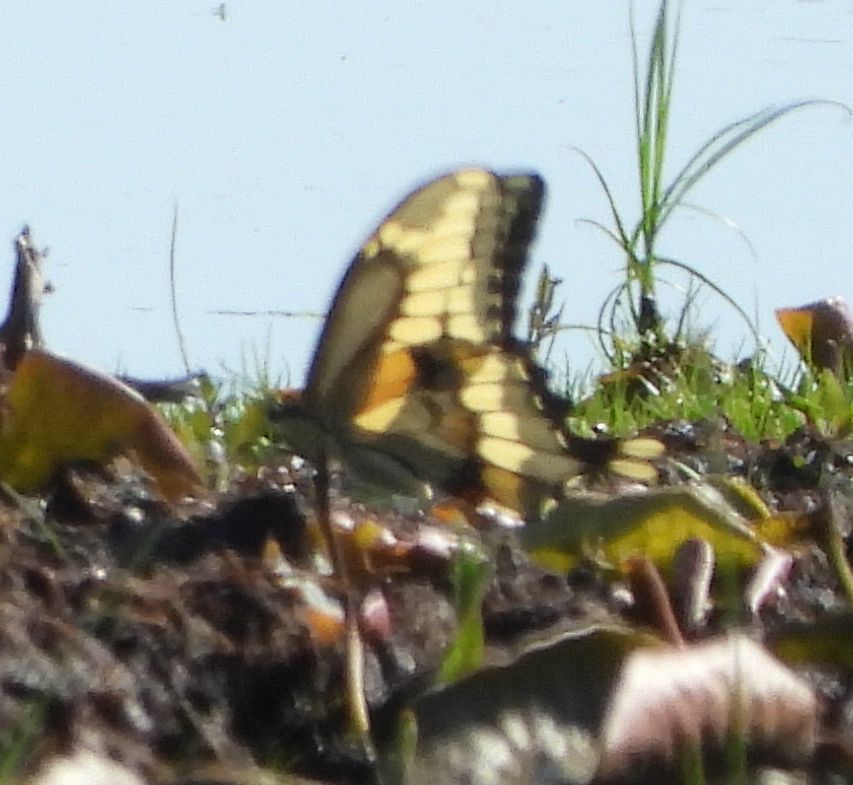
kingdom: Animalia
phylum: Arthropoda
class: Insecta
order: Lepidoptera
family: Papilionidae
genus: Papilio
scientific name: Papilio cresphontes
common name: Giant swallowtail
